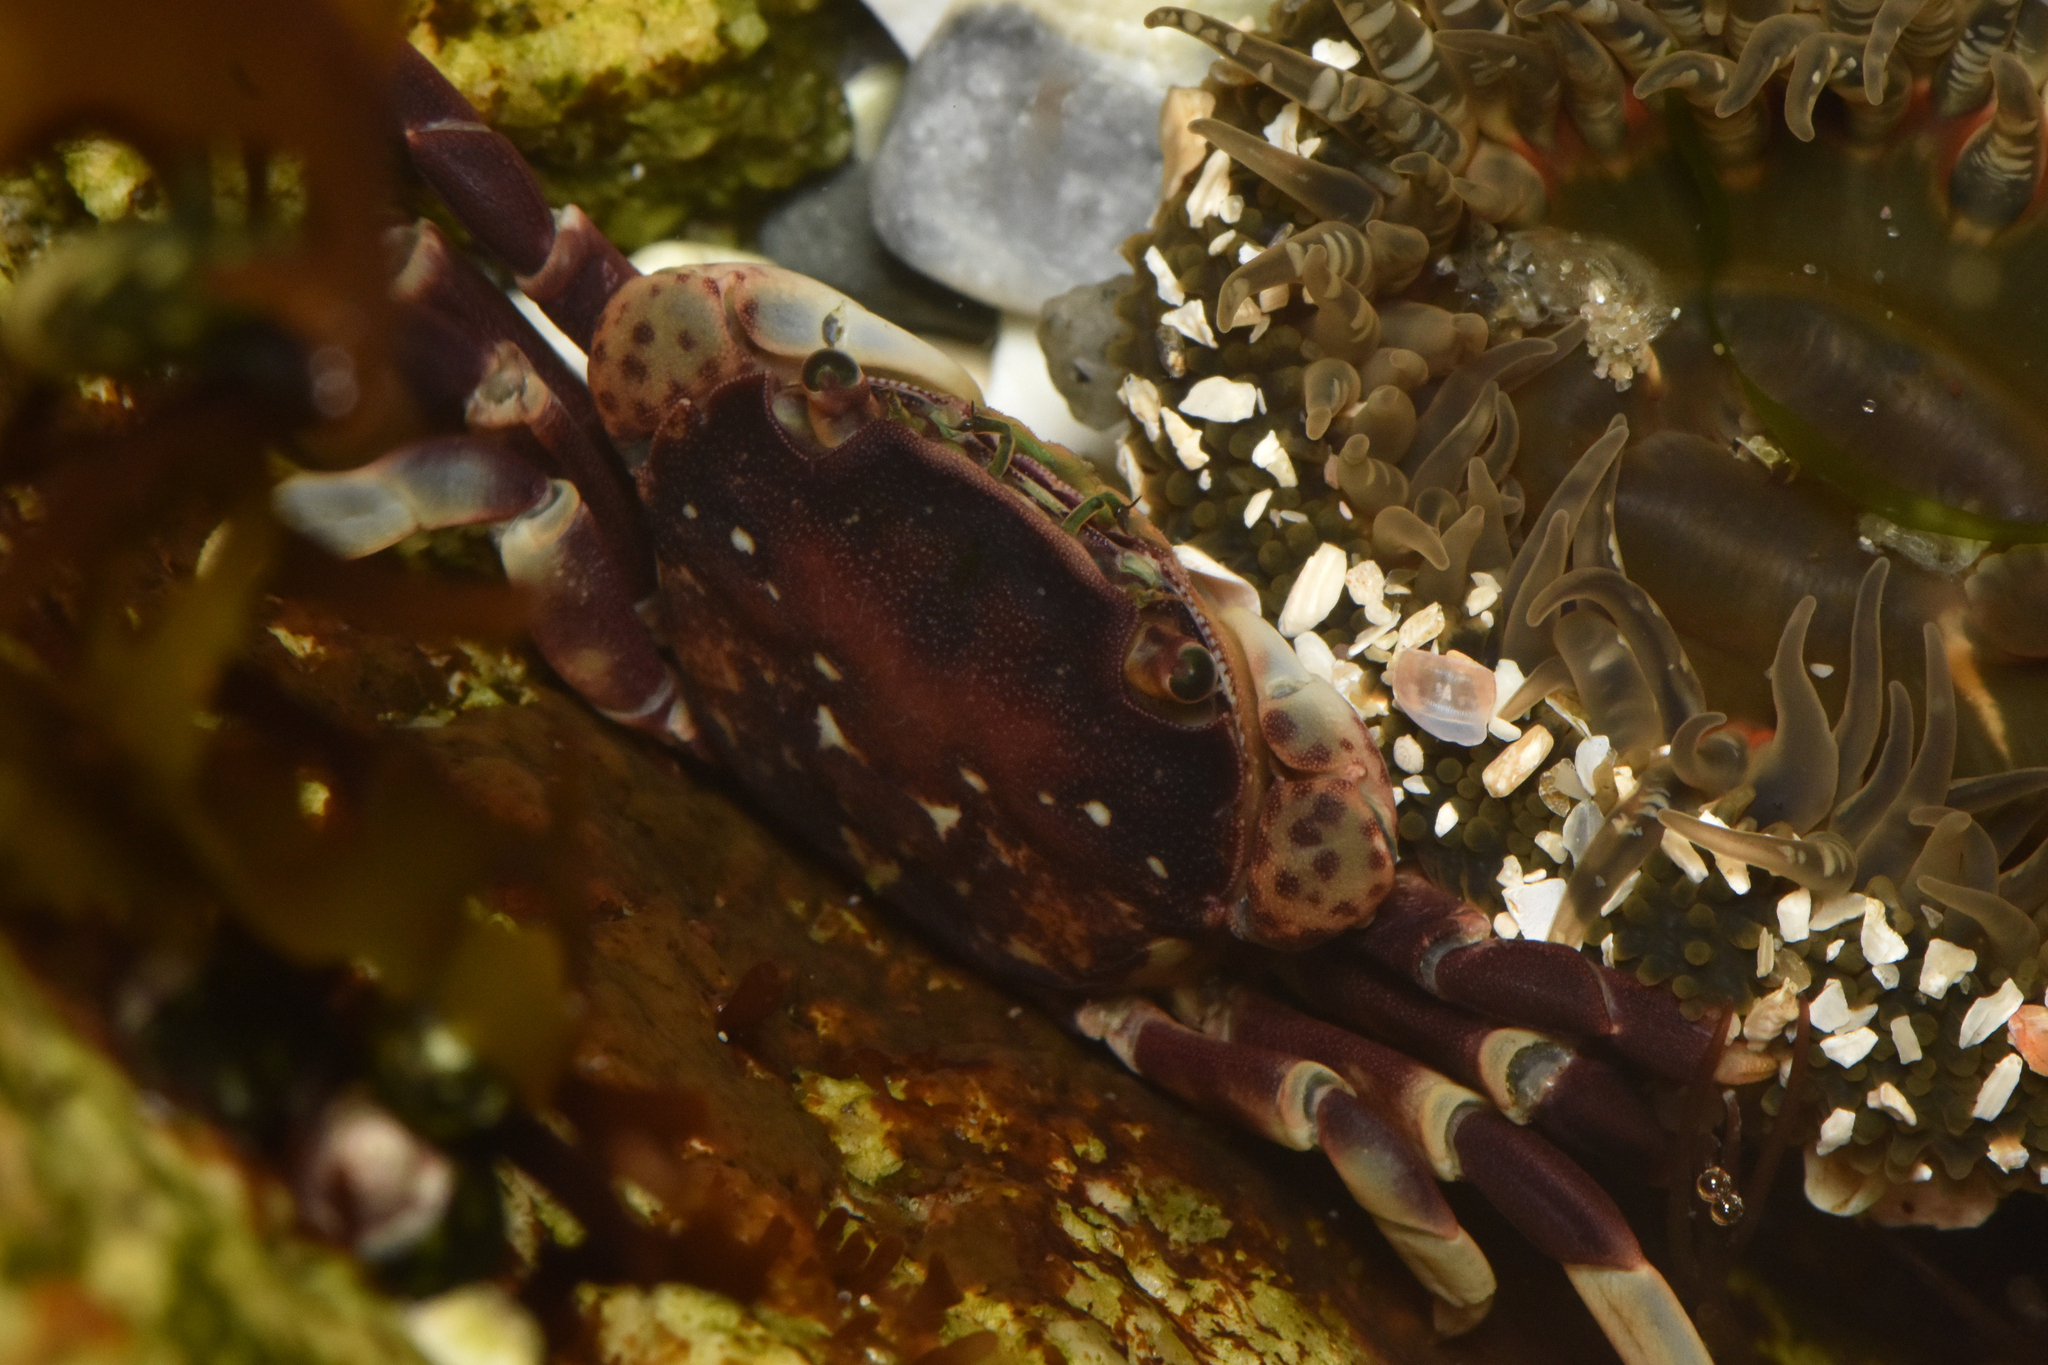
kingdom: Animalia
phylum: Arthropoda
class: Malacostraca
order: Decapoda
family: Varunidae
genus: Hemigrapsus
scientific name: Hemigrapsus nudus
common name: Purple shore crab
